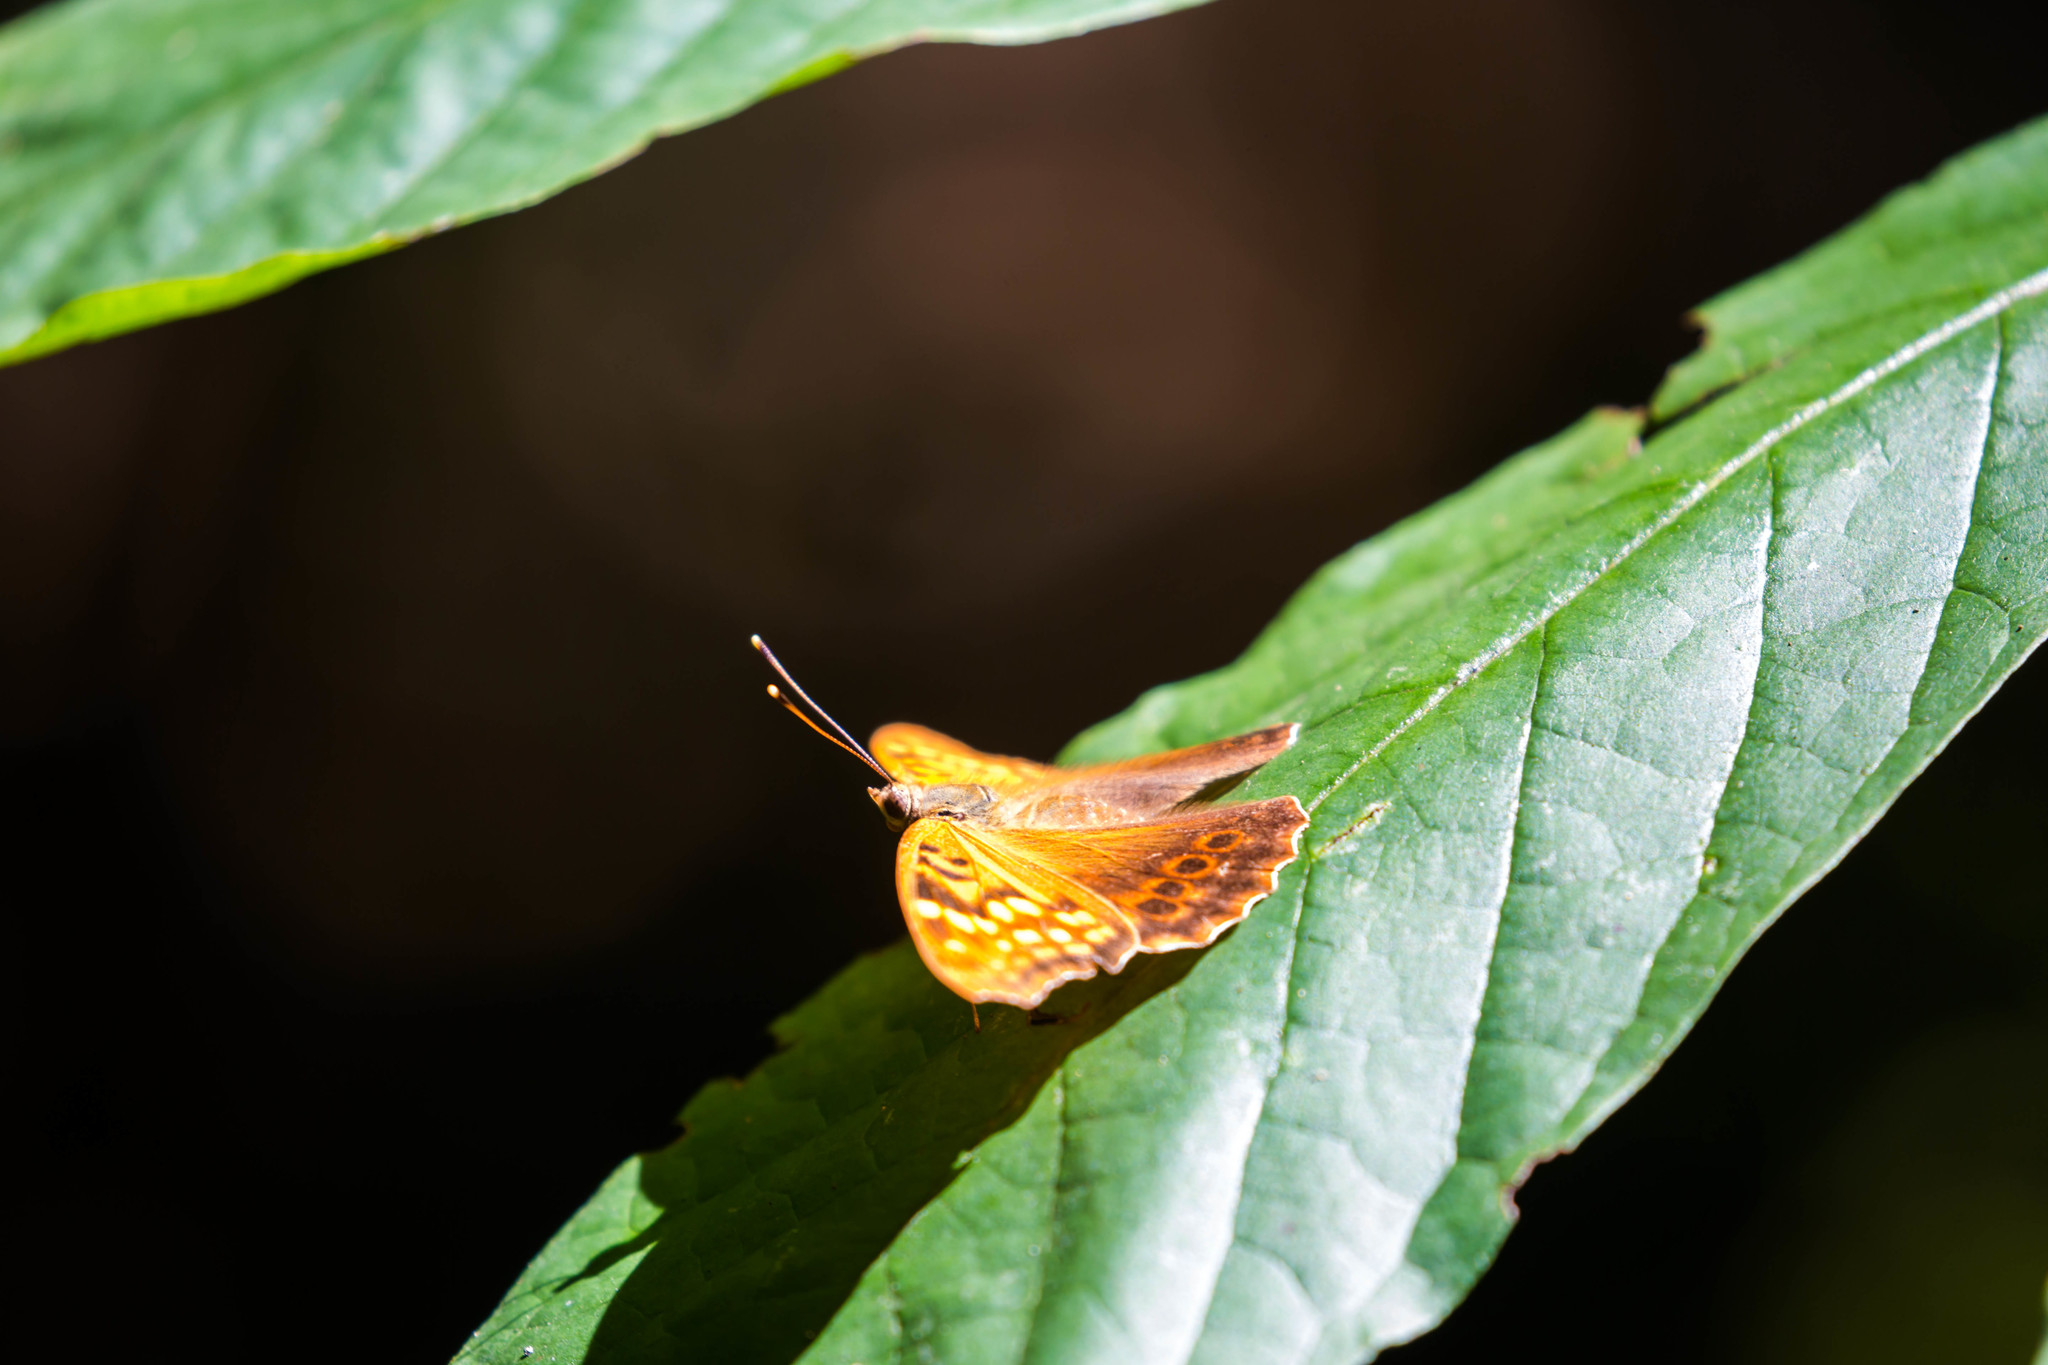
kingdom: Animalia
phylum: Arthropoda
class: Insecta
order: Lepidoptera
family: Nymphalidae
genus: Asterocampa
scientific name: Asterocampa clyton
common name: Tawny emperor
